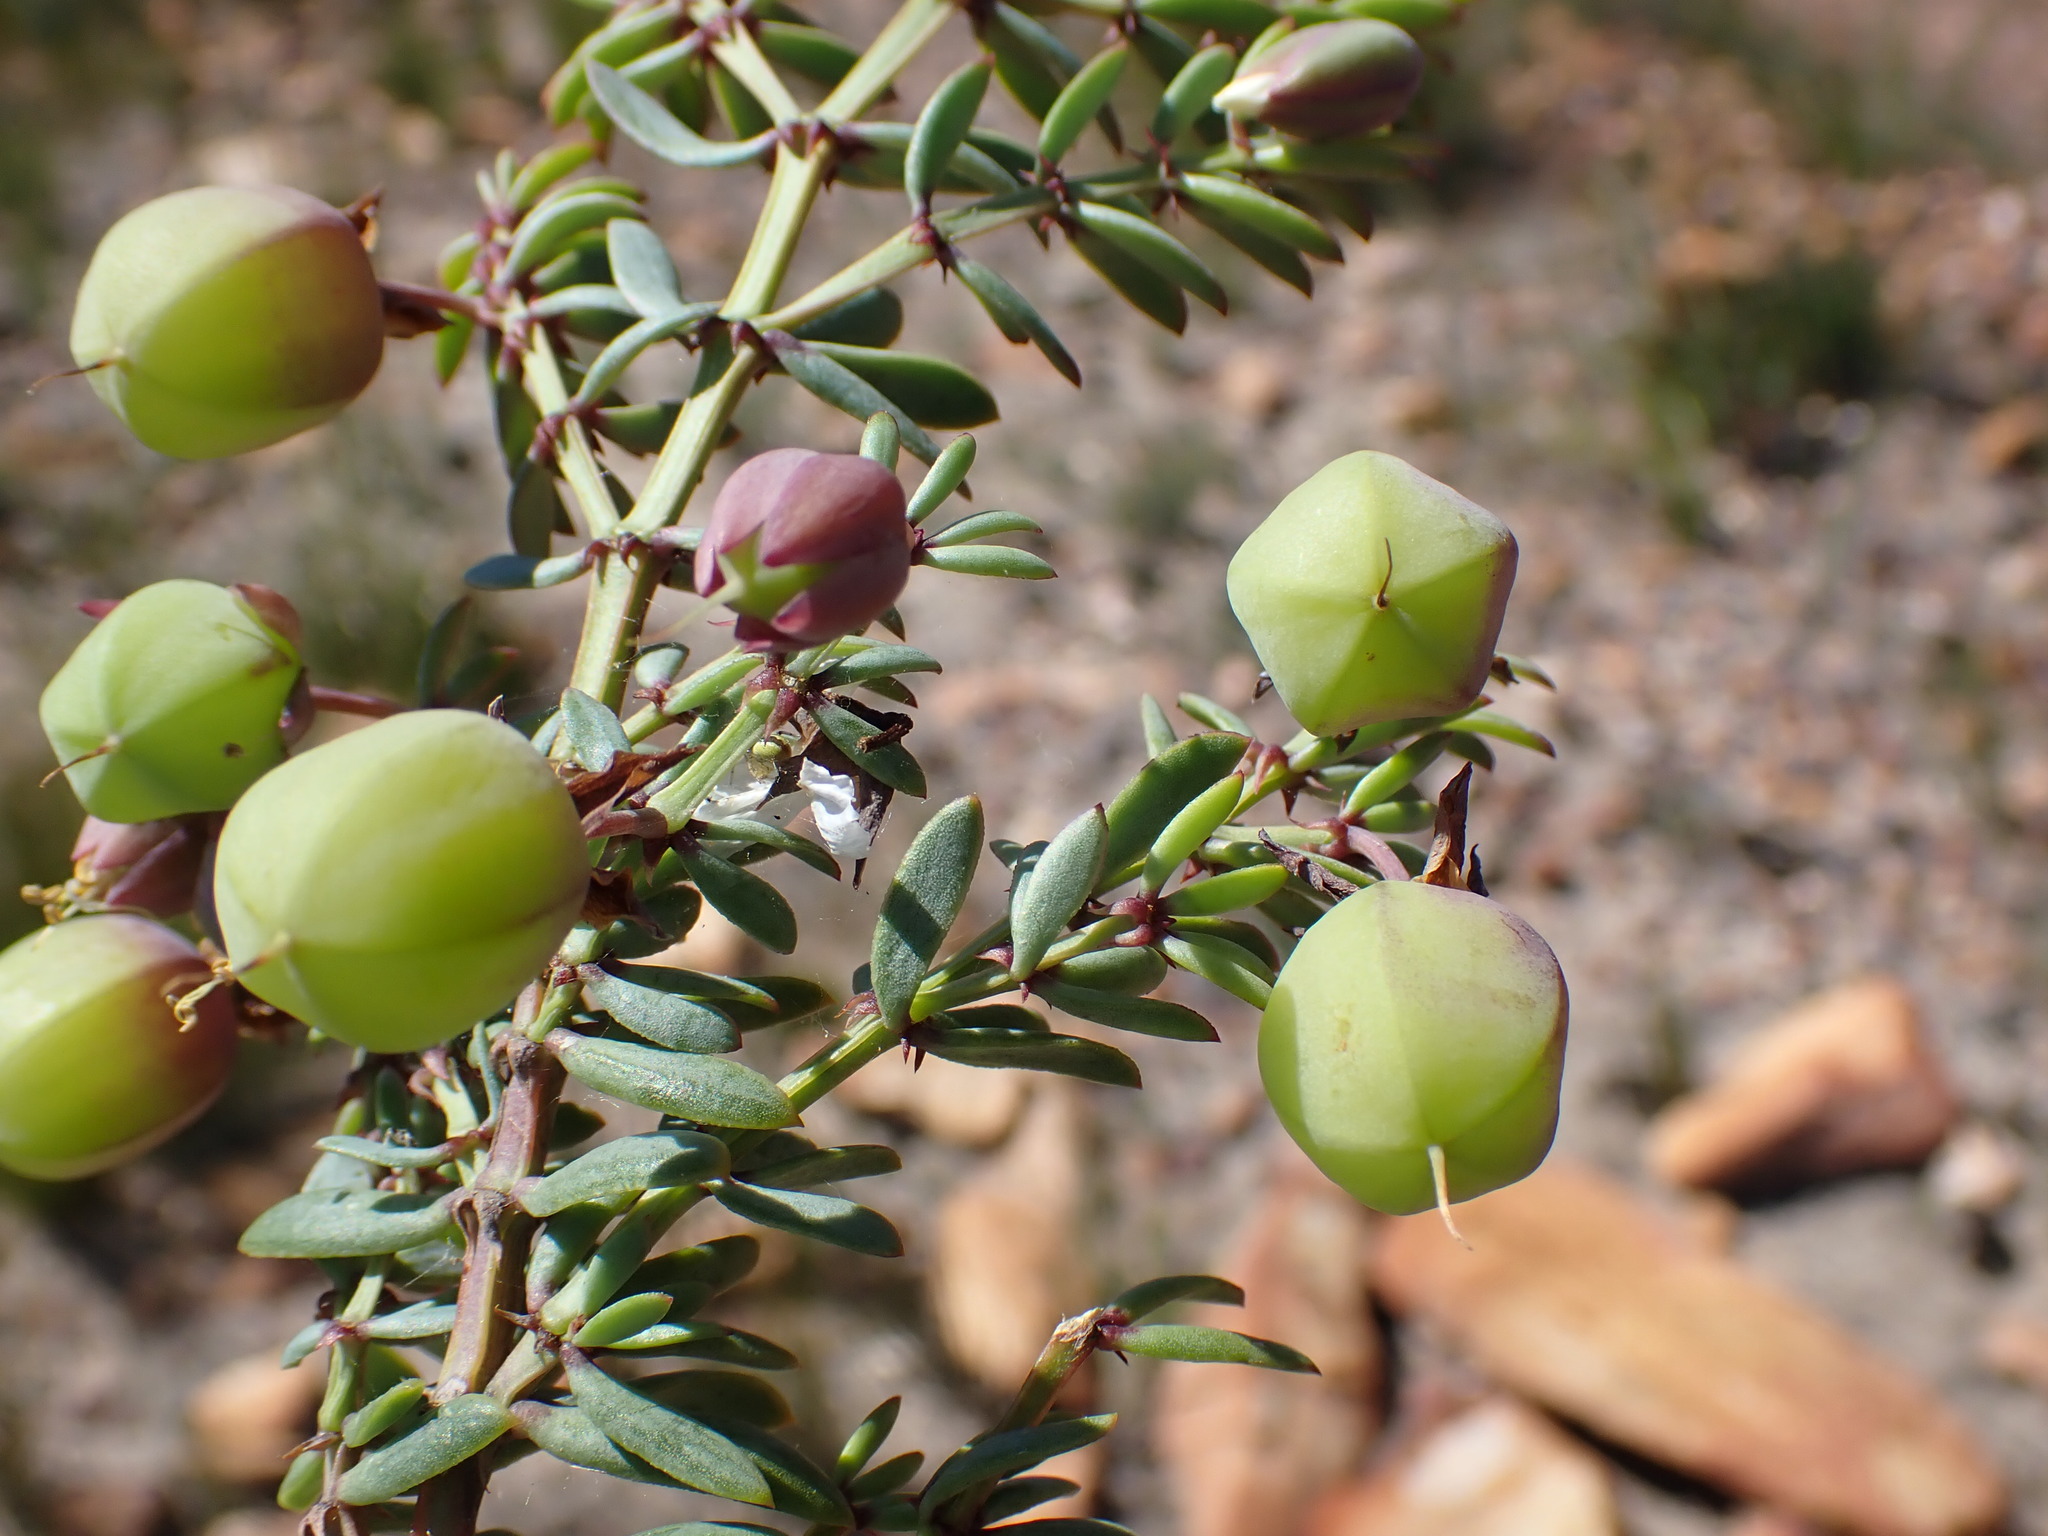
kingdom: Plantae
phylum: Tracheophyta
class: Magnoliopsida
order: Zygophyllales
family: Zygophyllaceae
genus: Roepera
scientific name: Roepera fulva
